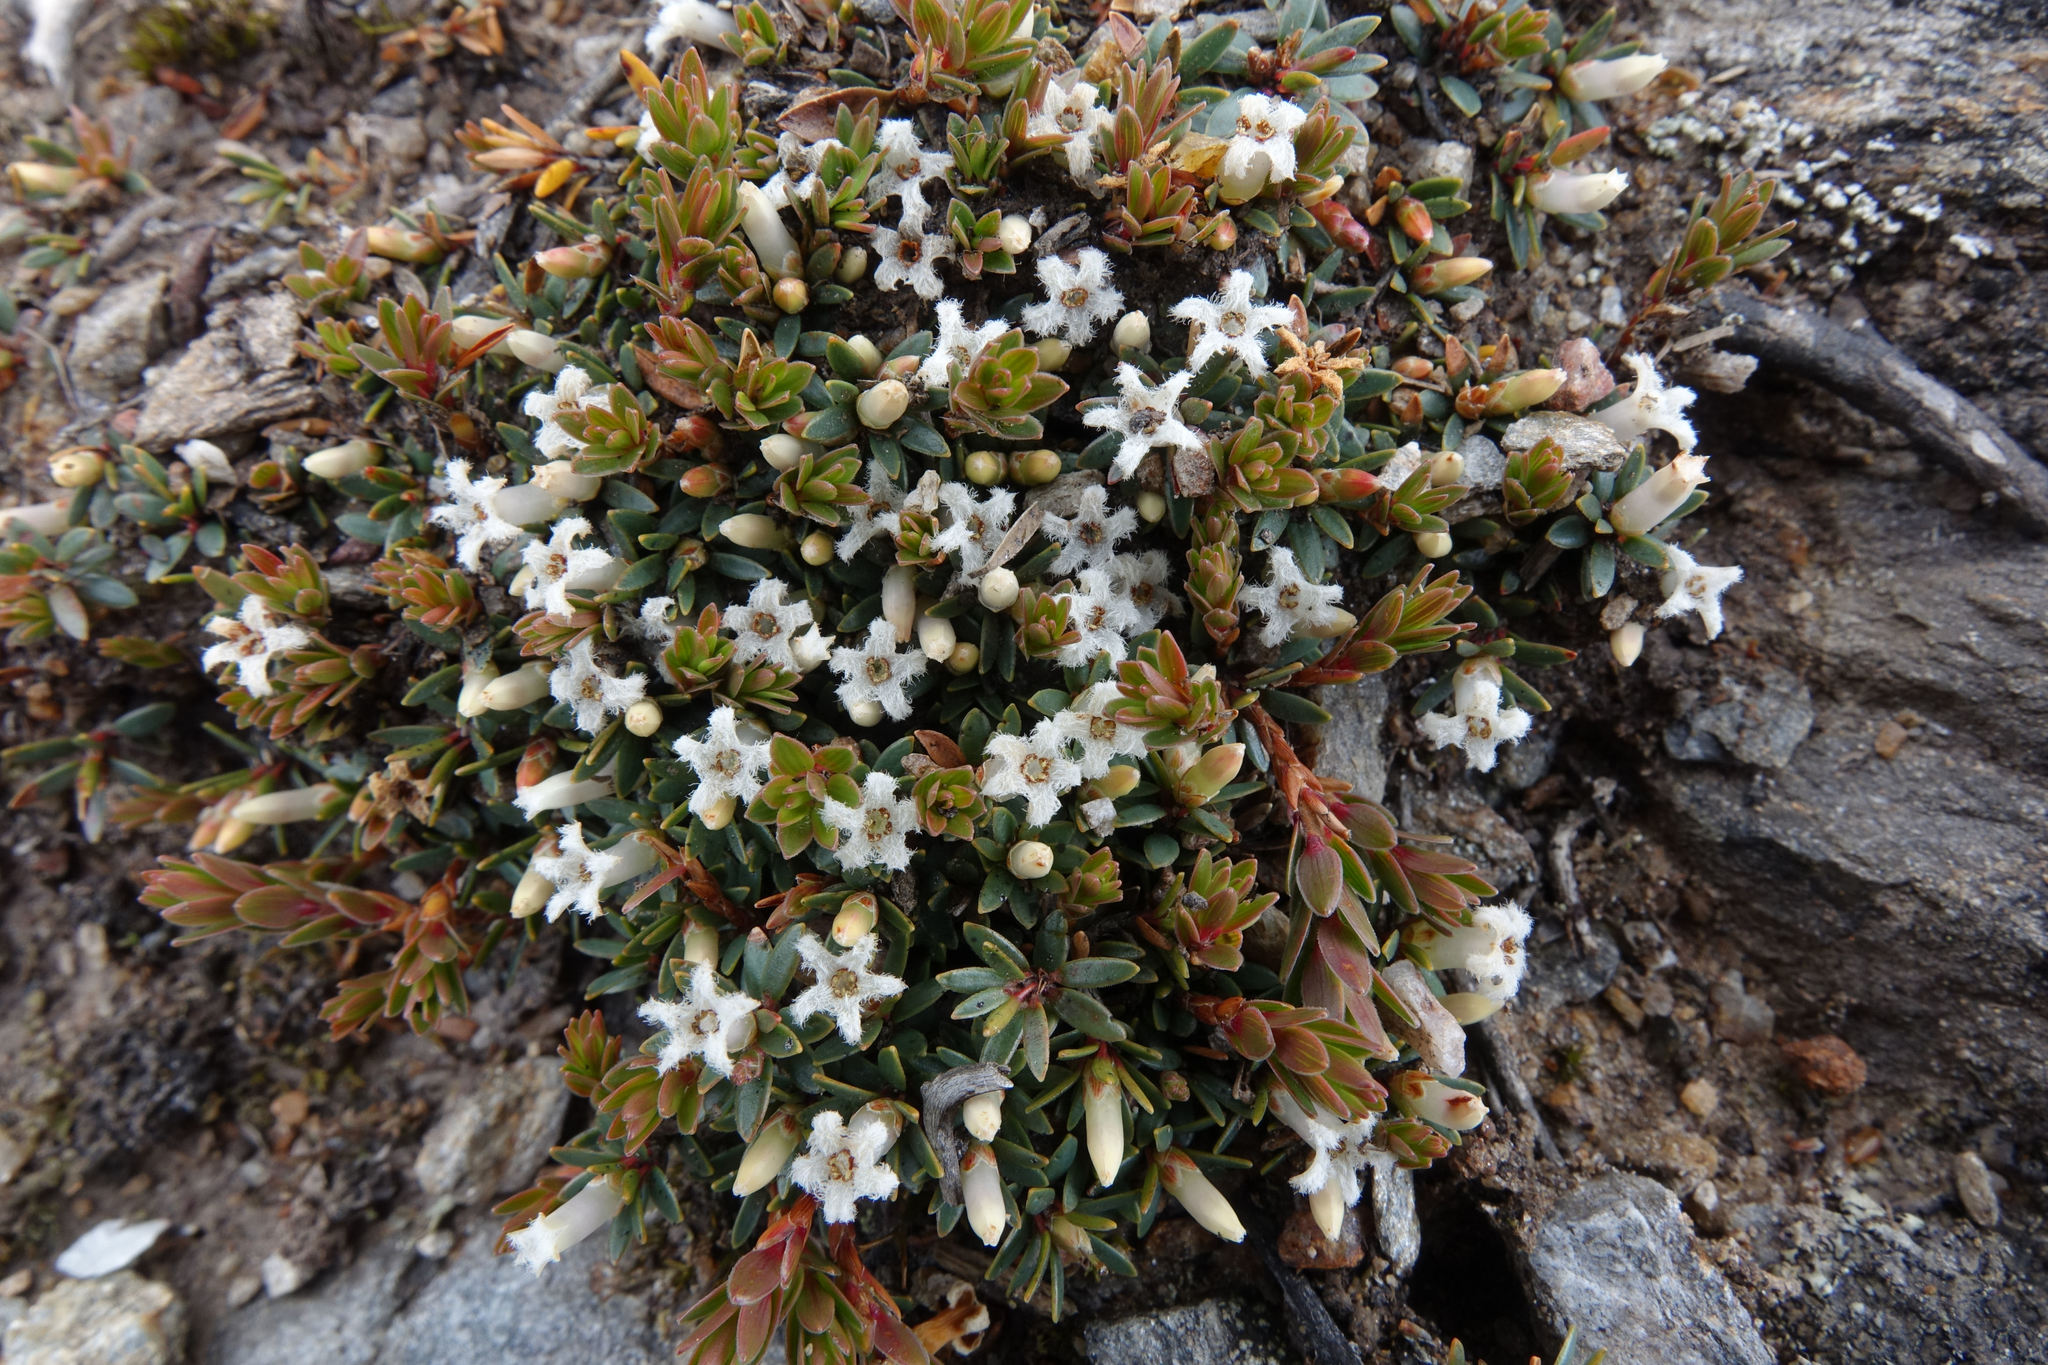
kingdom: Plantae
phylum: Tracheophyta
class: Magnoliopsida
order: Ericales
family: Ericaceae
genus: Pentachondra
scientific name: Pentachondra pumila
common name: Carpet-heath
